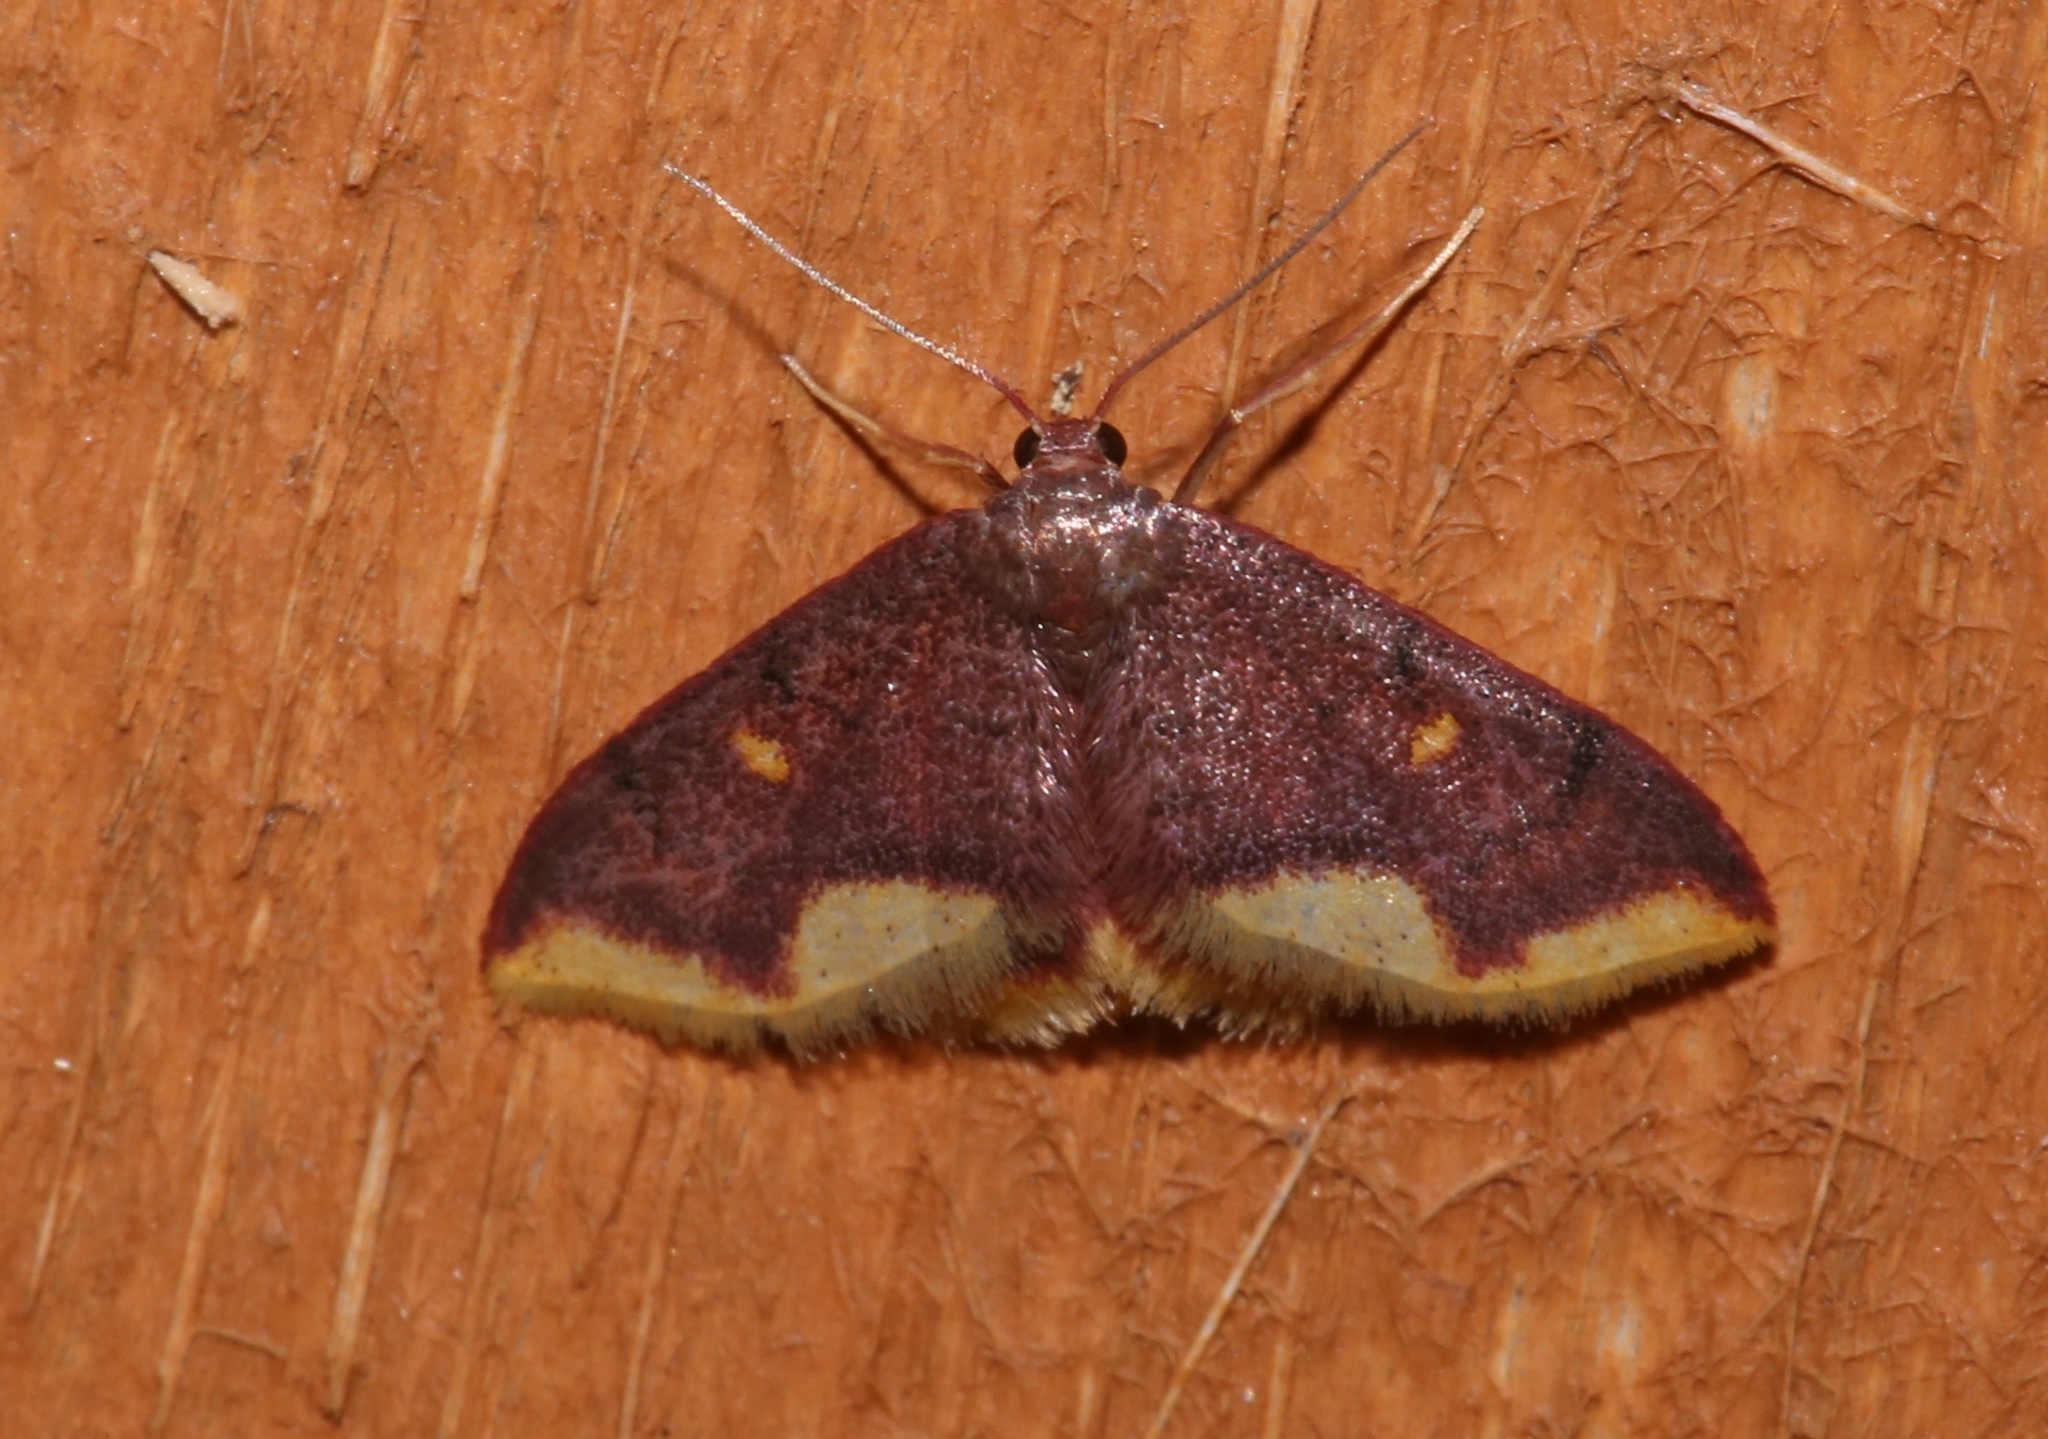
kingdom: Animalia
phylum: Arthropoda
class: Insecta
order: Lepidoptera
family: Geometridae
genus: Lophosis
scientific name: Lophosis labeculata
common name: Stained lophosis moth
